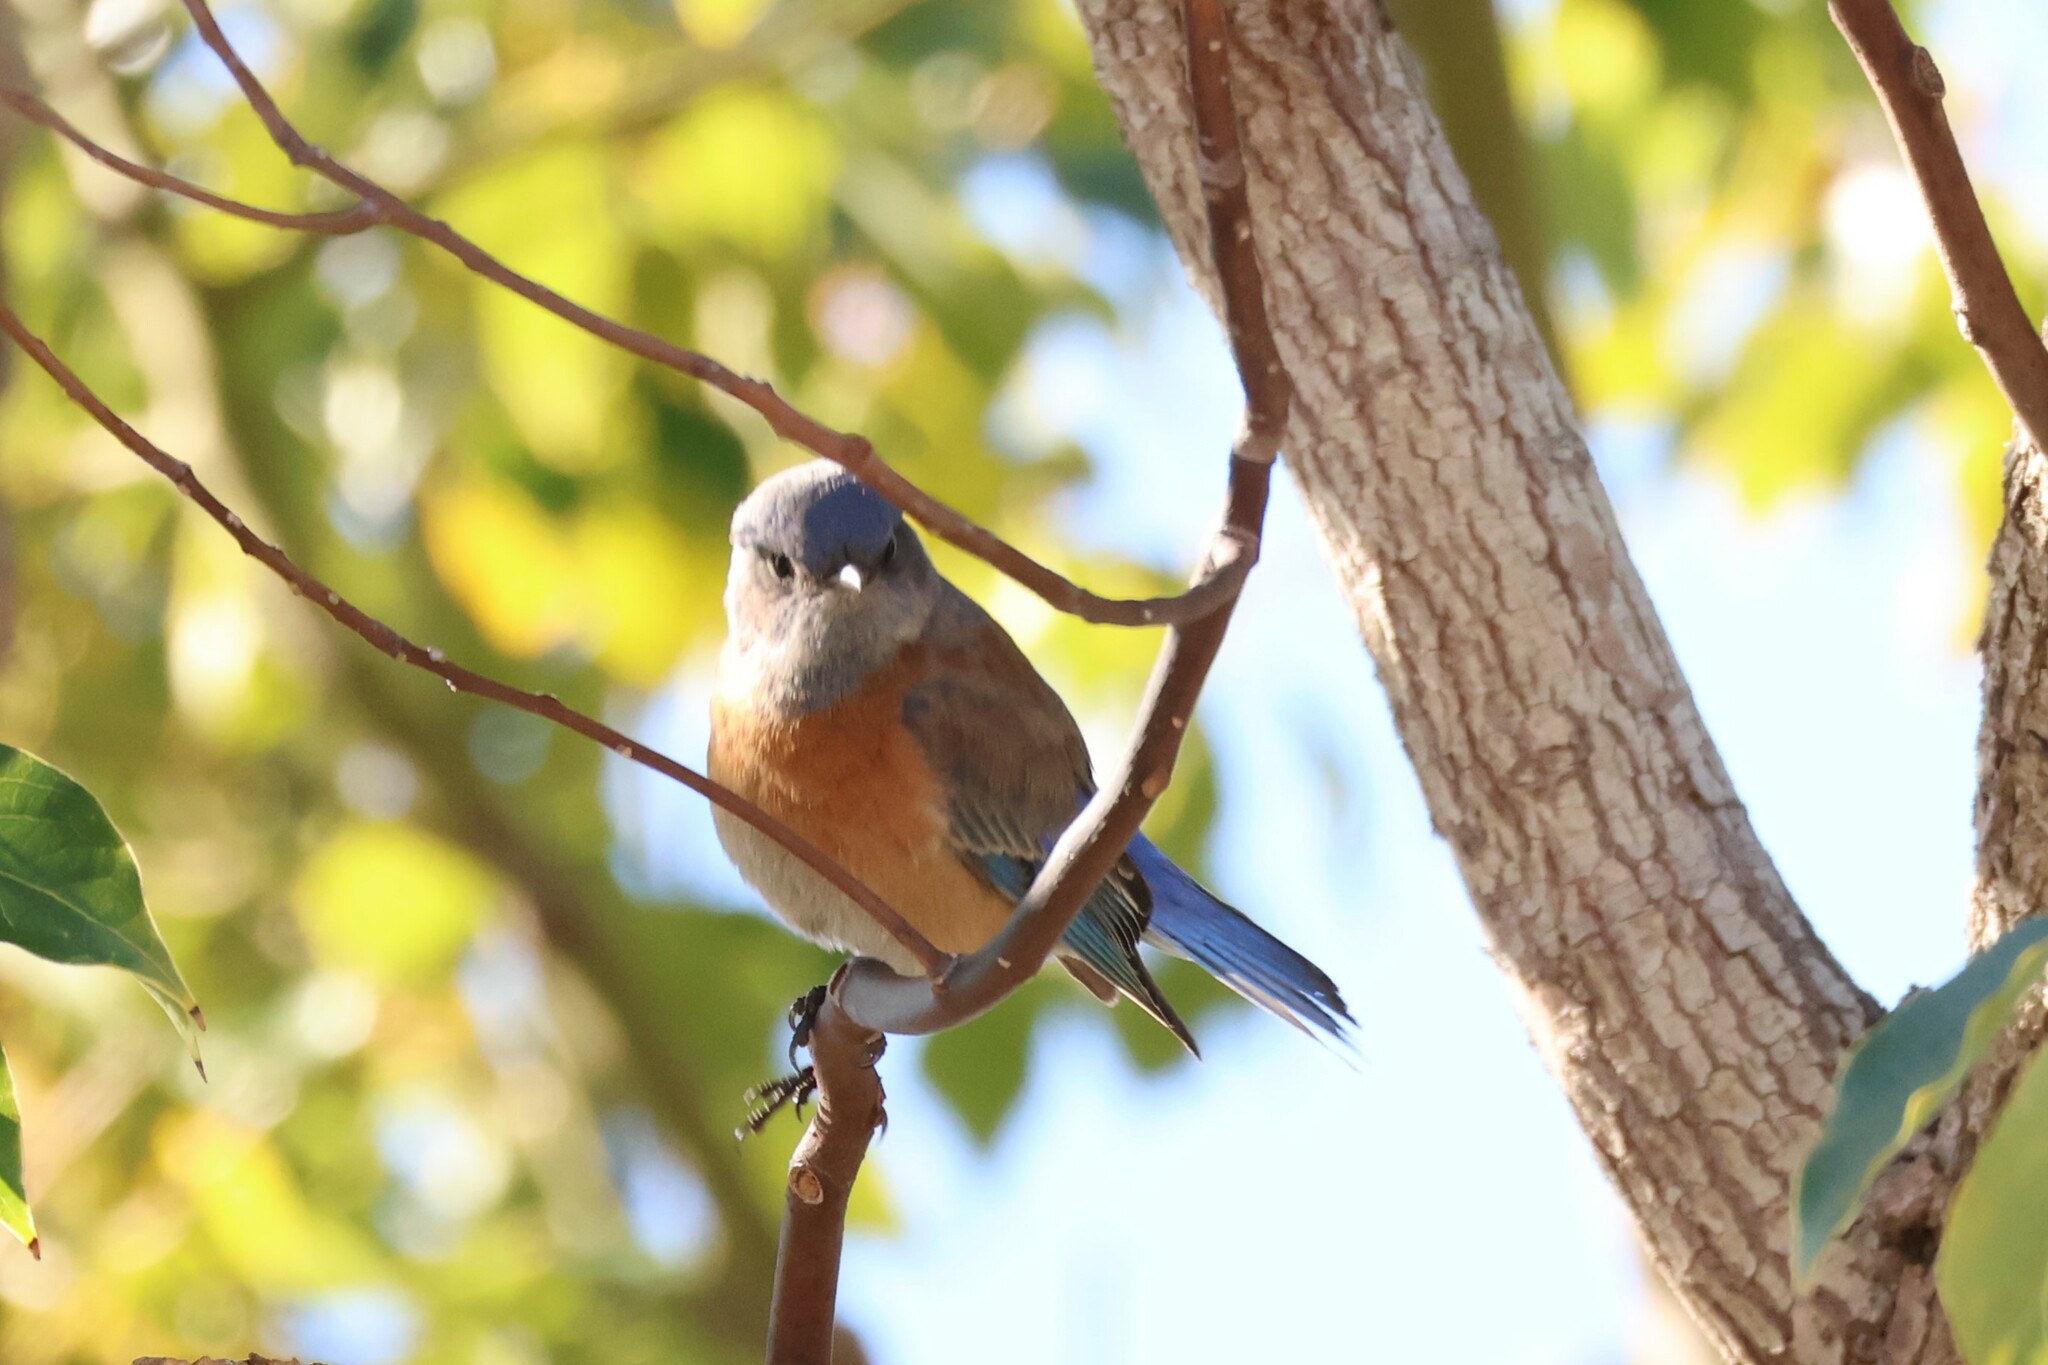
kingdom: Animalia
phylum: Chordata
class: Aves
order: Passeriformes
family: Turdidae
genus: Sialia
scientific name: Sialia mexicana
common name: Western bluebird
